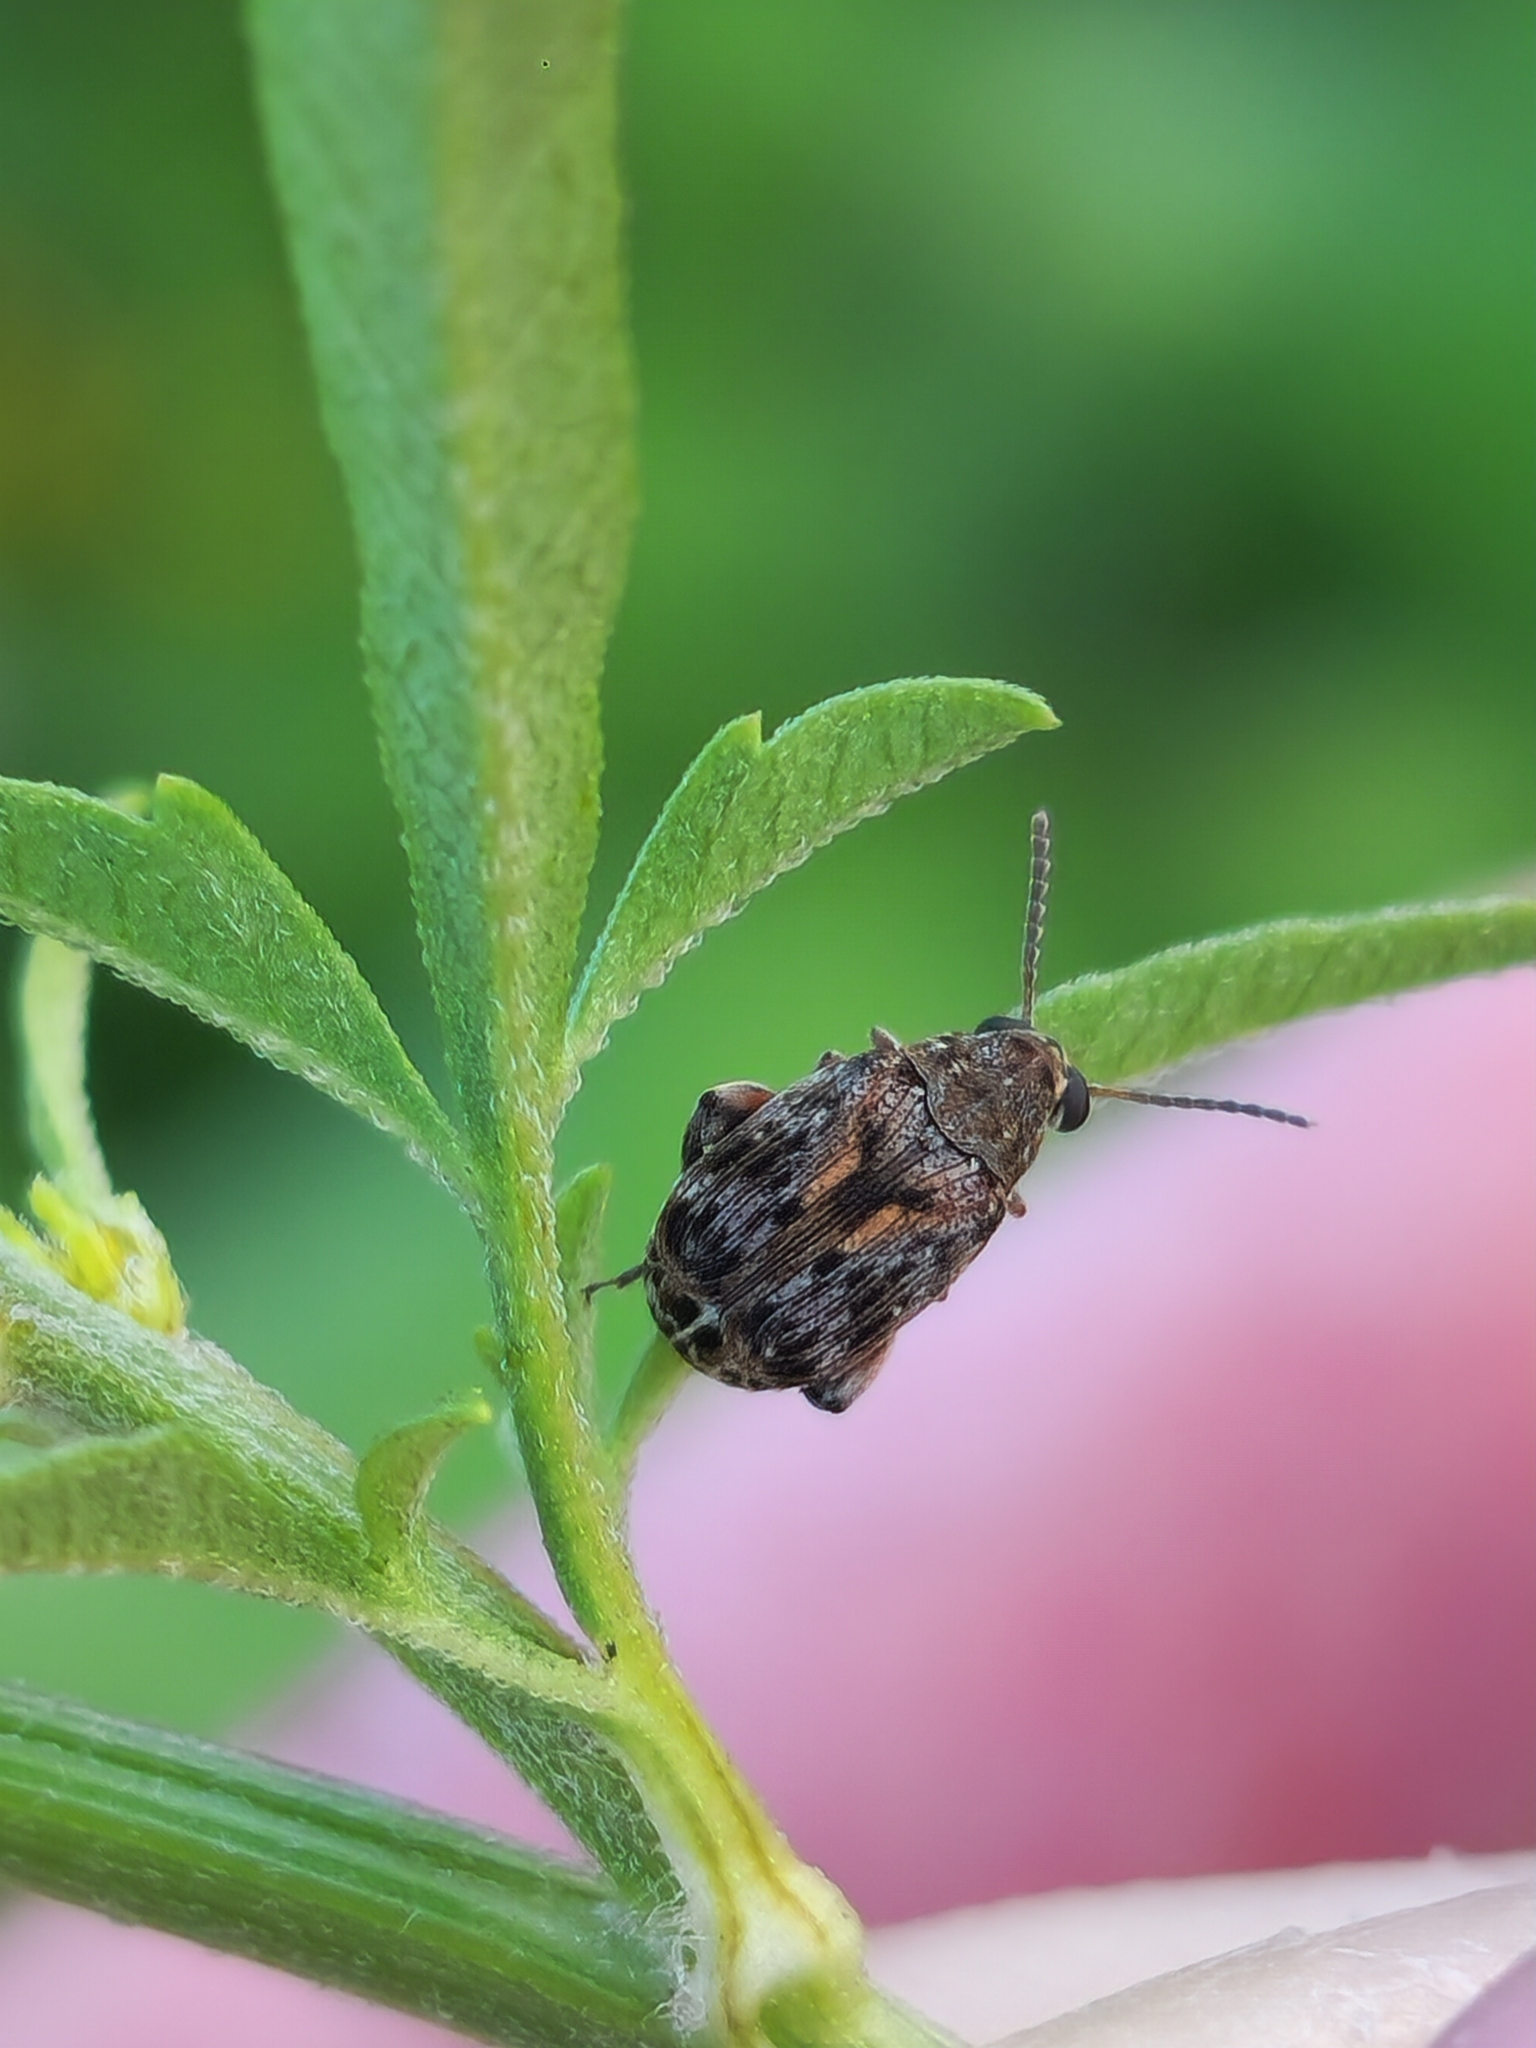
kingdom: Animalia
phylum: Arthropoda
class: Insecta
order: Coleoptera
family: Chrysomelidae
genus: Pseudopachymerina
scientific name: Pseudopachymerina spinipes
